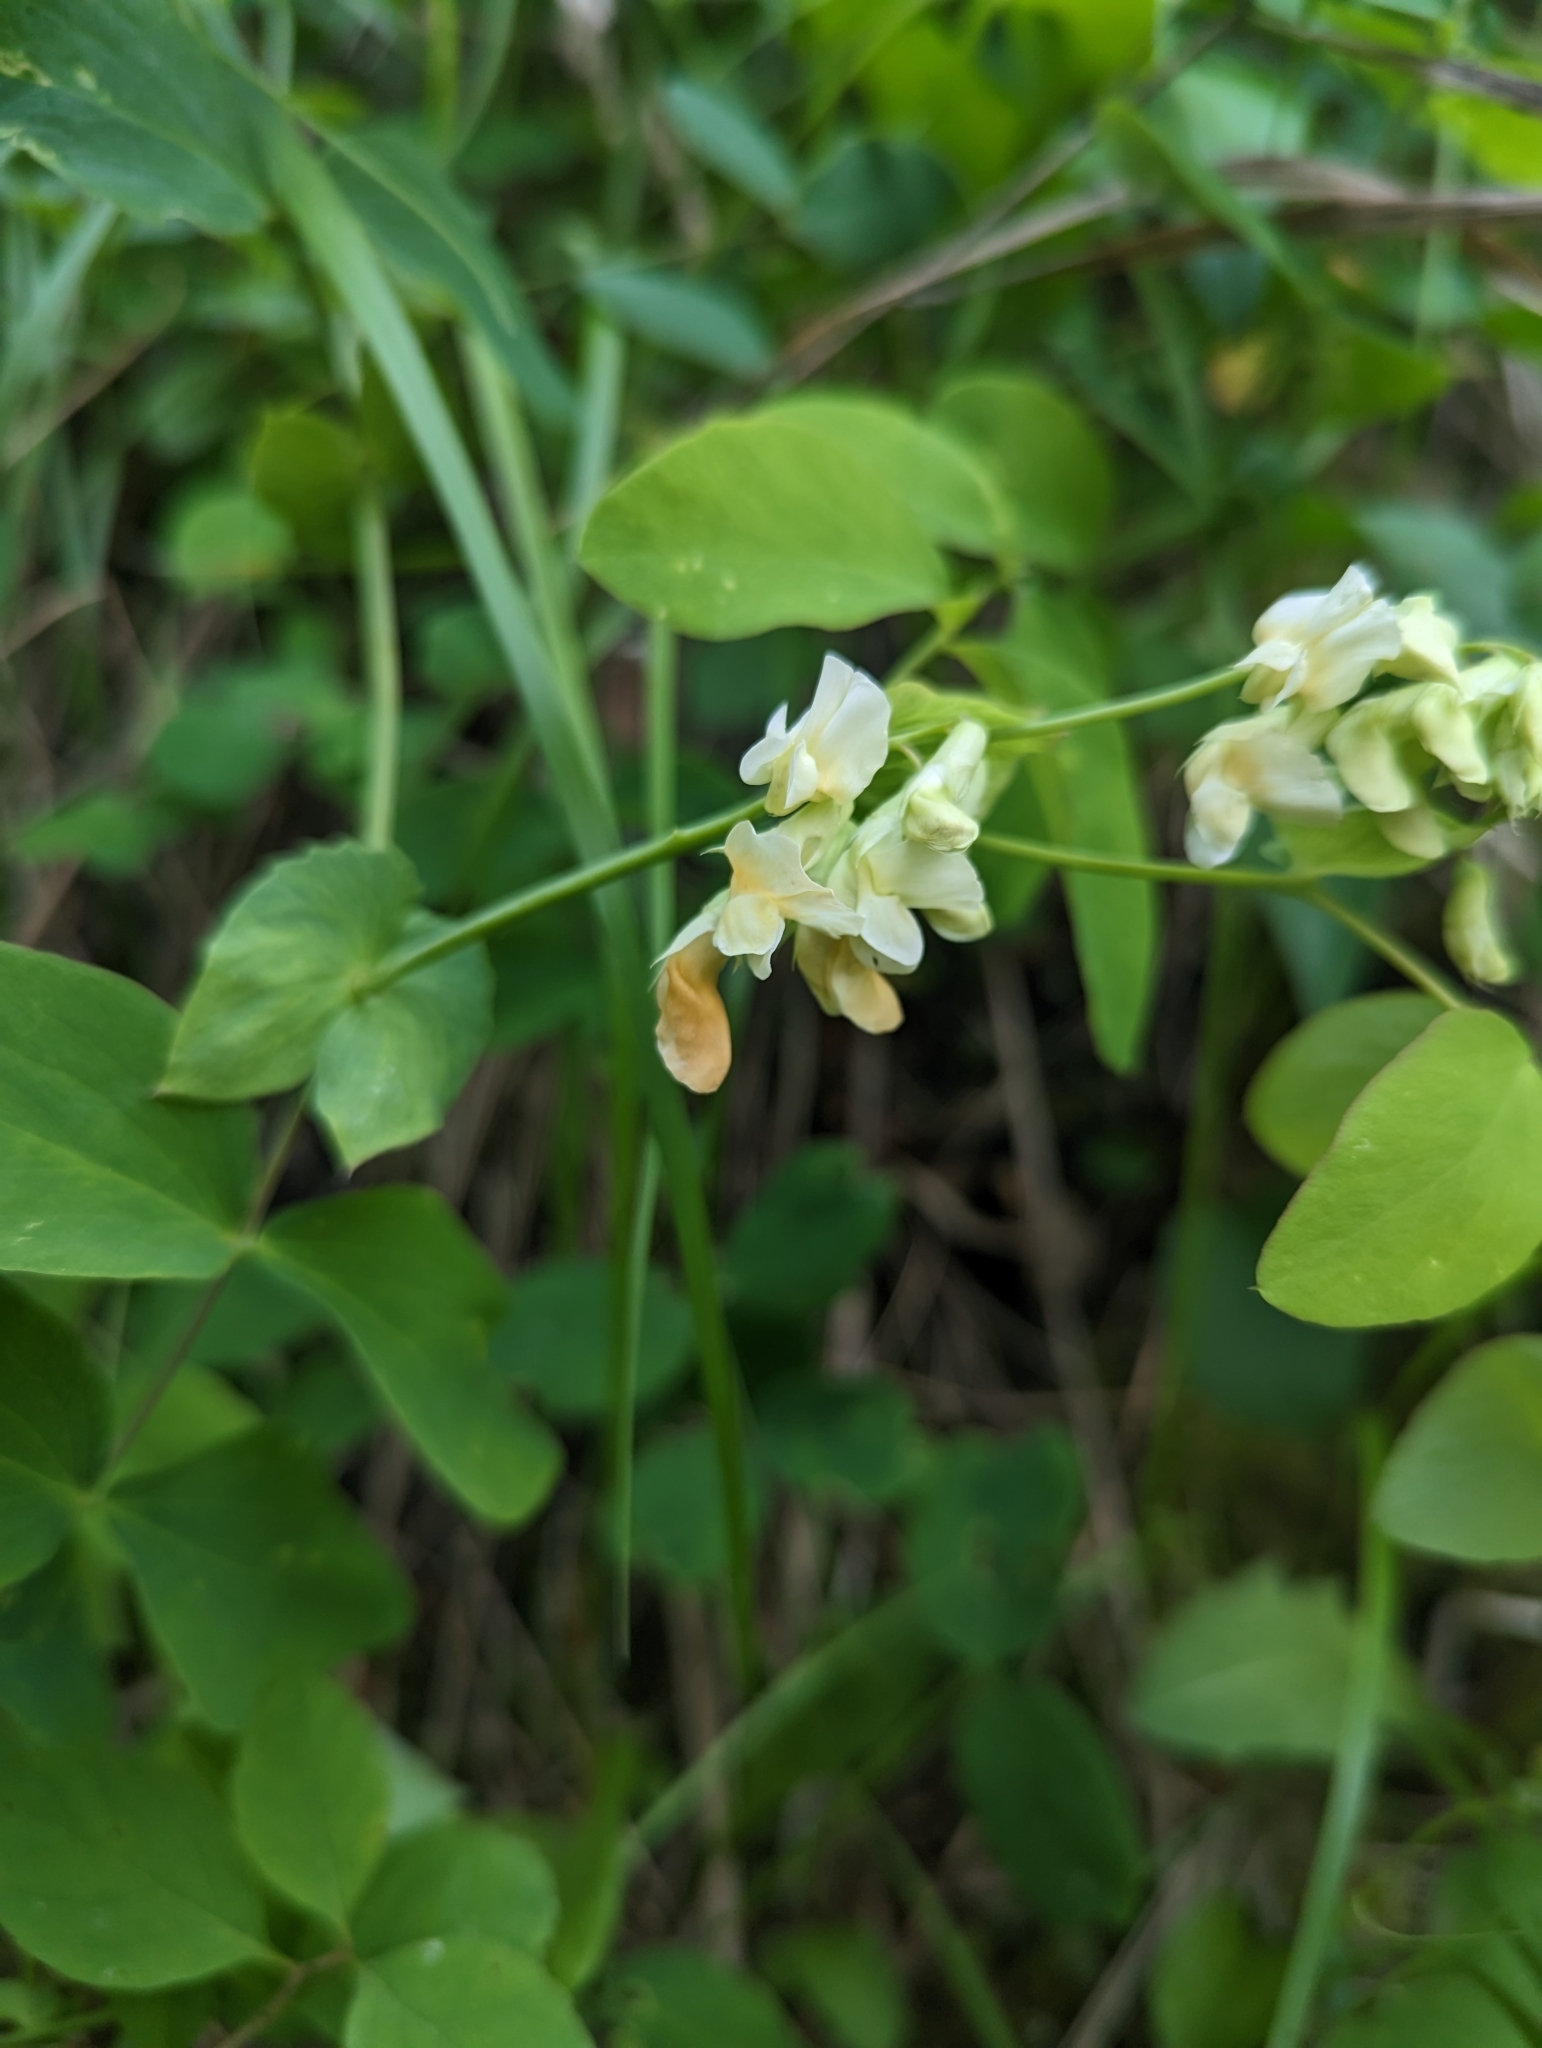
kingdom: Plantae
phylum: Tracheophyta
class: Magnoliopsida
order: Fabales
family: Fabaceae
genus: Lathyrus
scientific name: Lathyrus ochroleucus
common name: Pale vetchling
